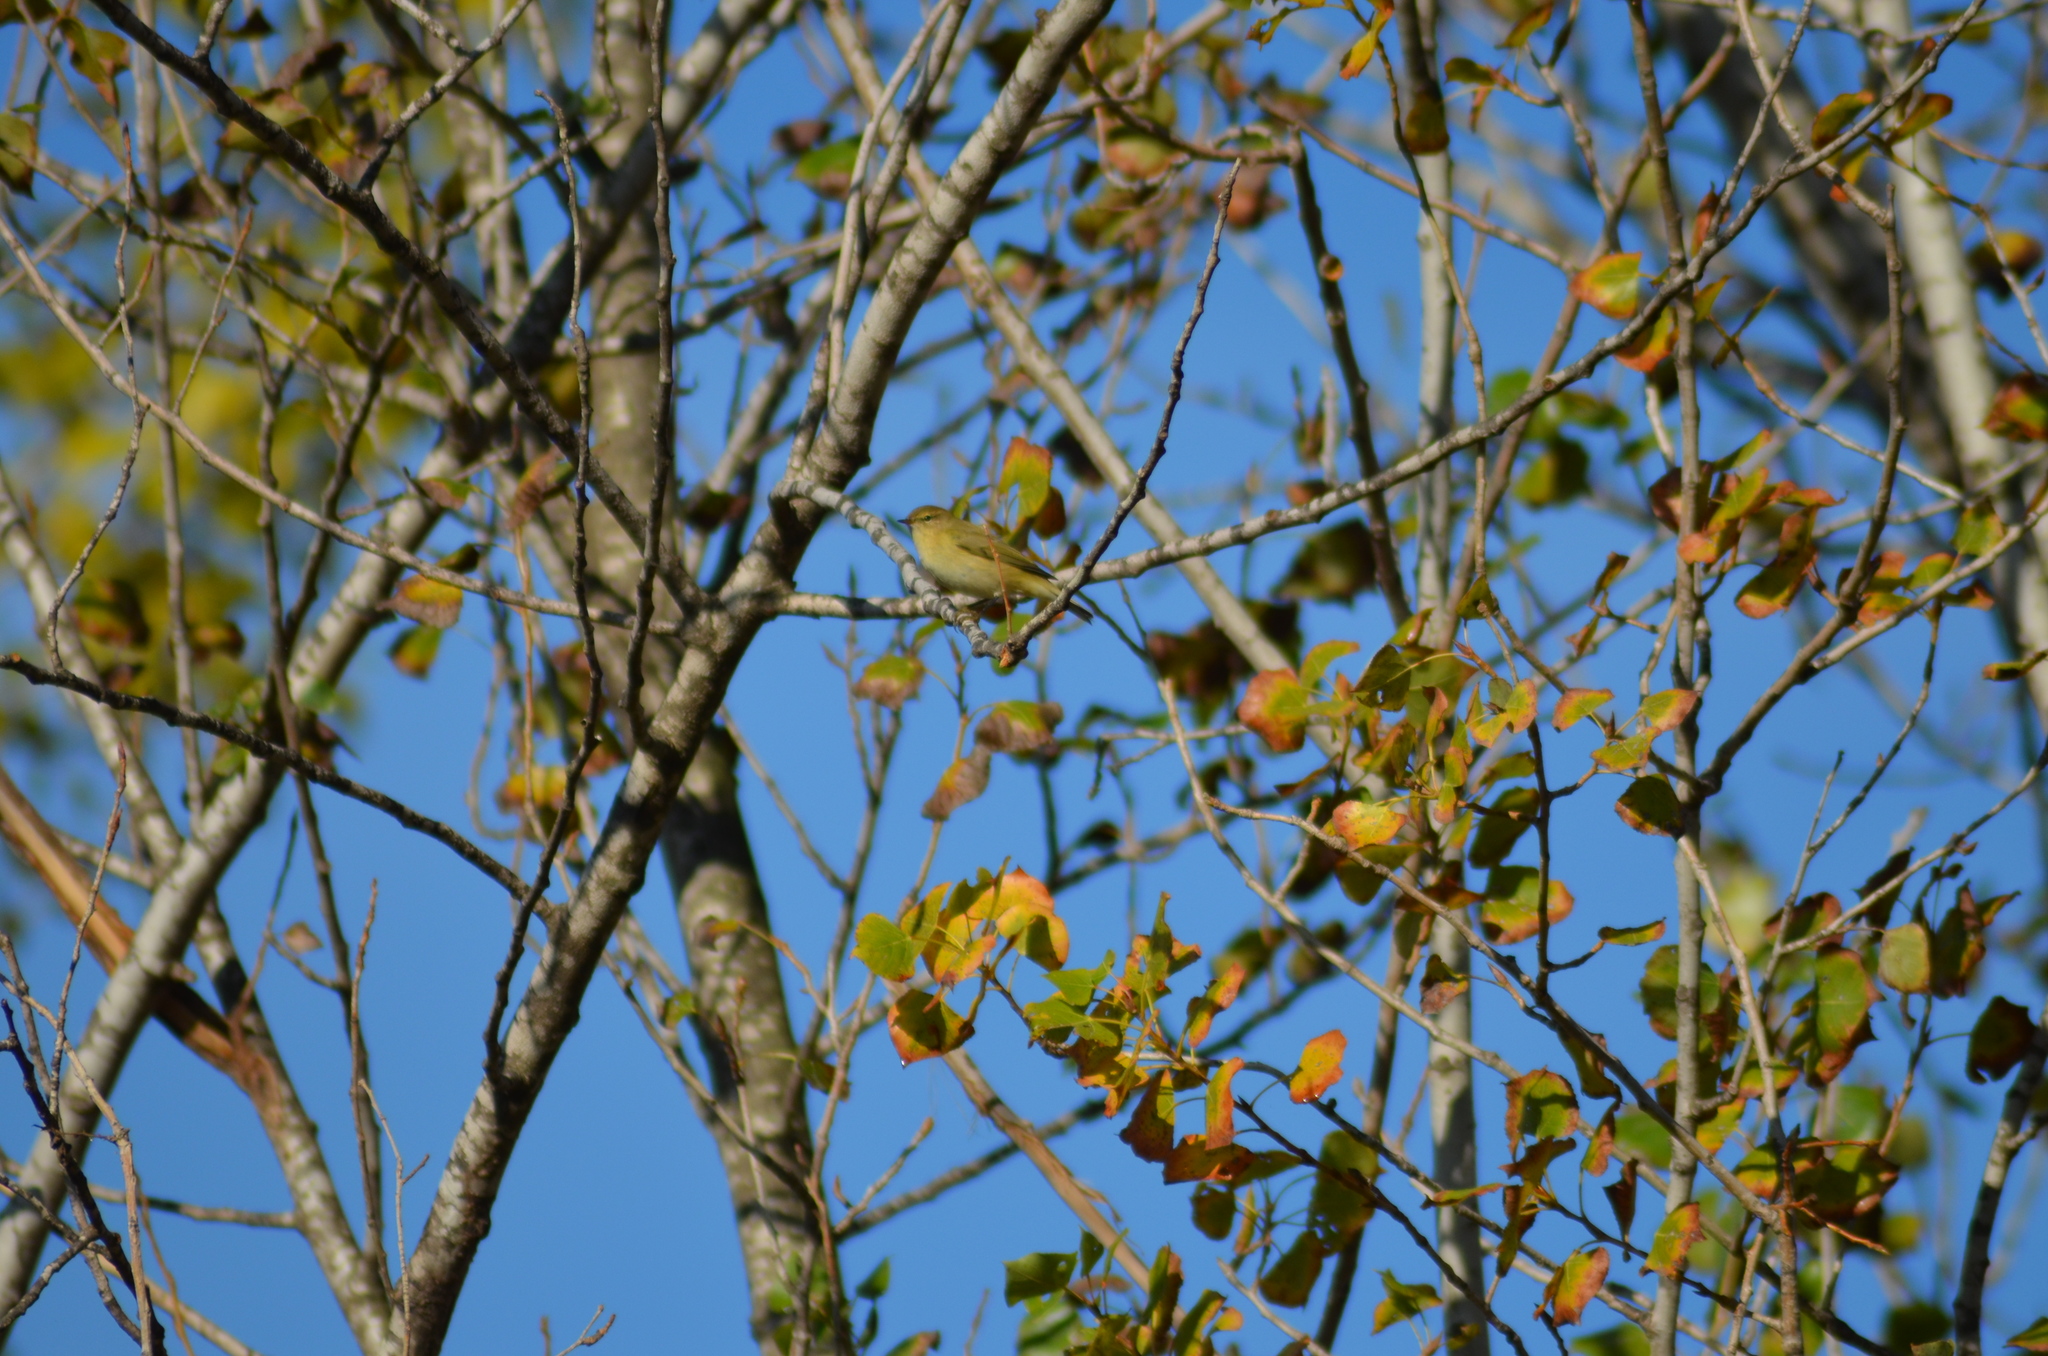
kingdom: Animalia
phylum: Chordata
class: Aves
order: Passeriformes
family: Phylloscopidae
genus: Phylloscopus
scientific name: Phylloscopus collybita
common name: Common chiffchaff
